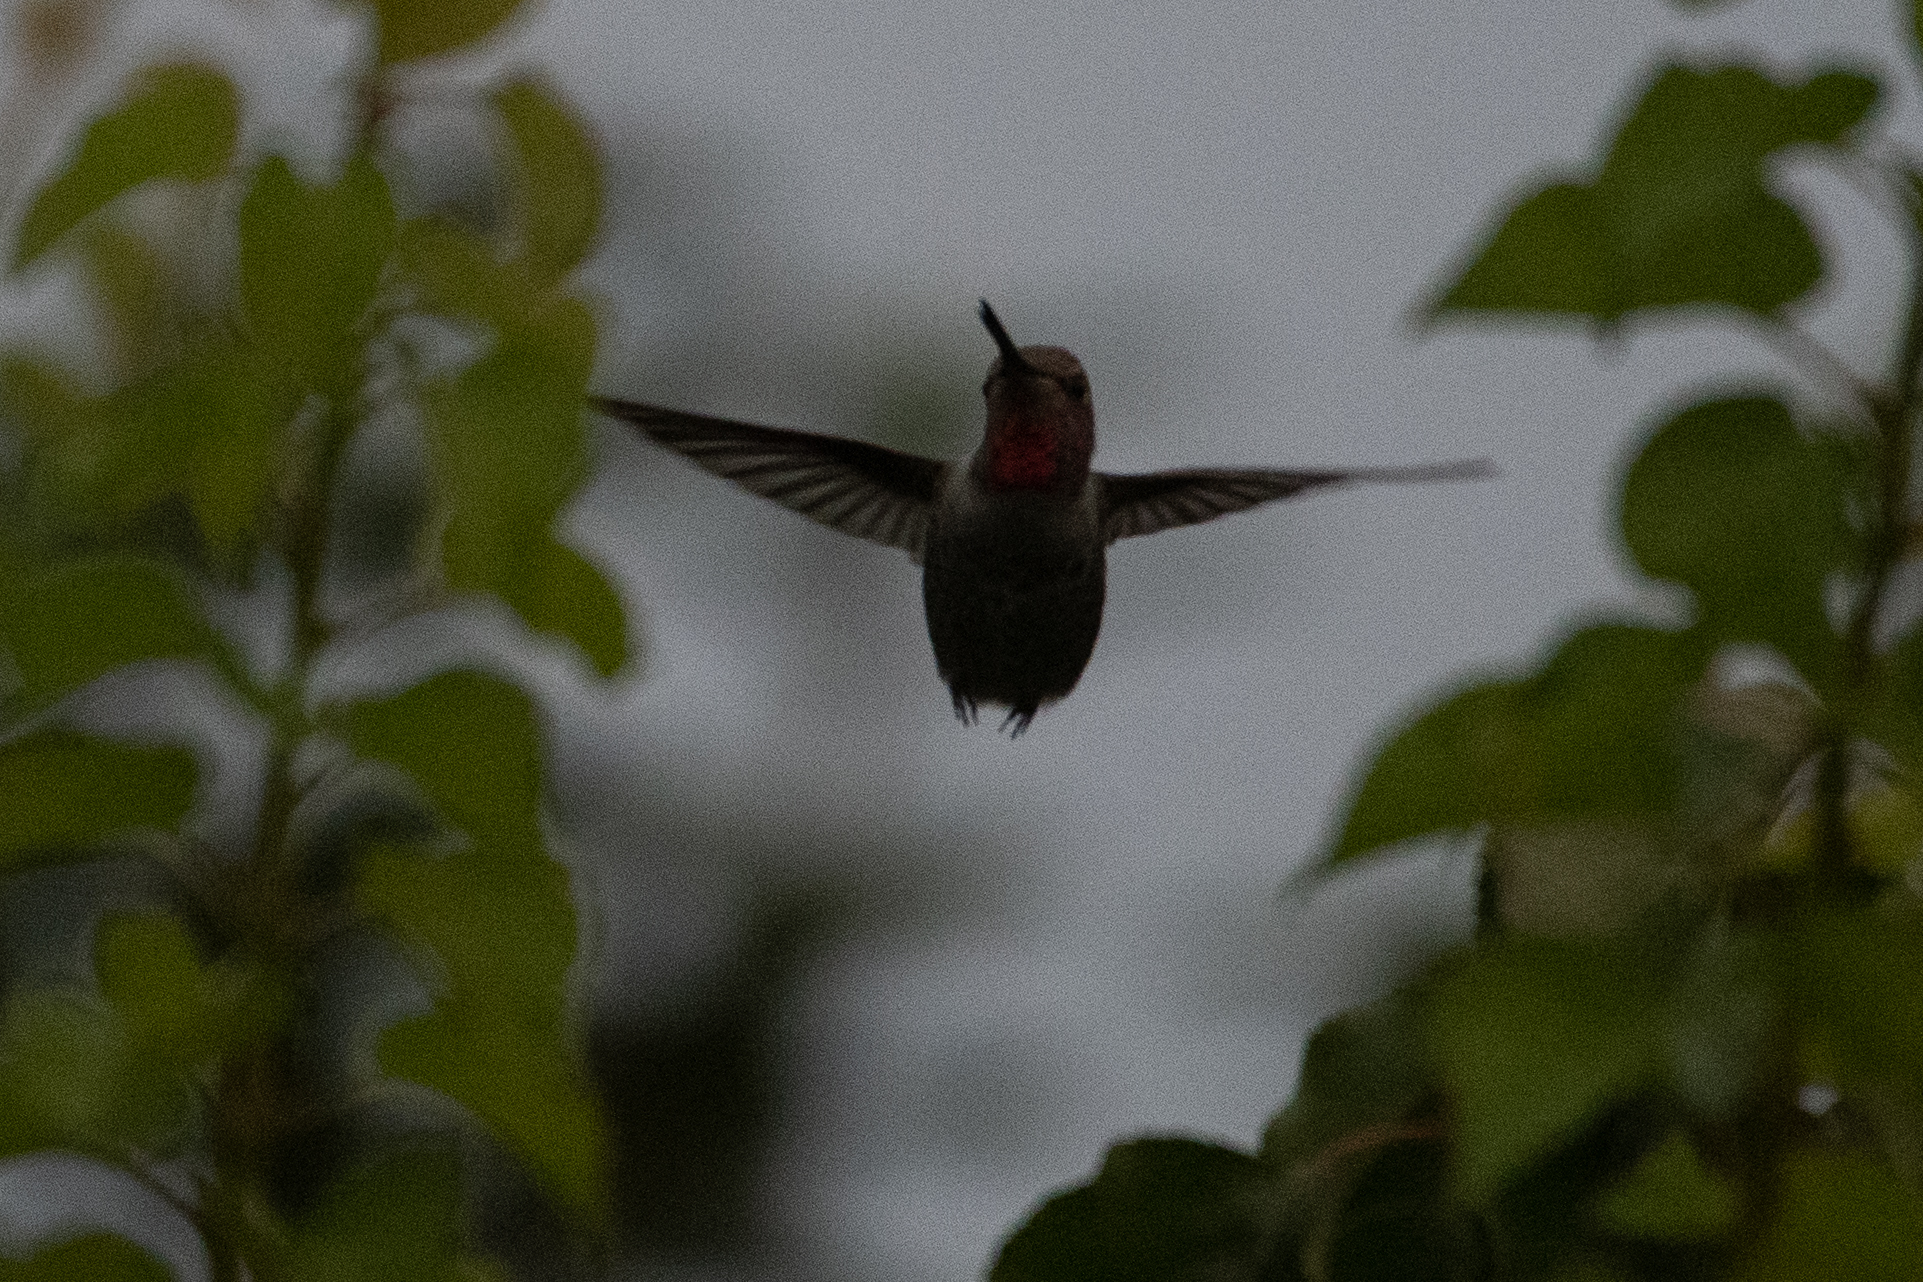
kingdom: Animalia
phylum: Chordata
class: Aves
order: Apodiformes
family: Trochilidae
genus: Calypte
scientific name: Calypte anna
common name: Anna's hummingbird
